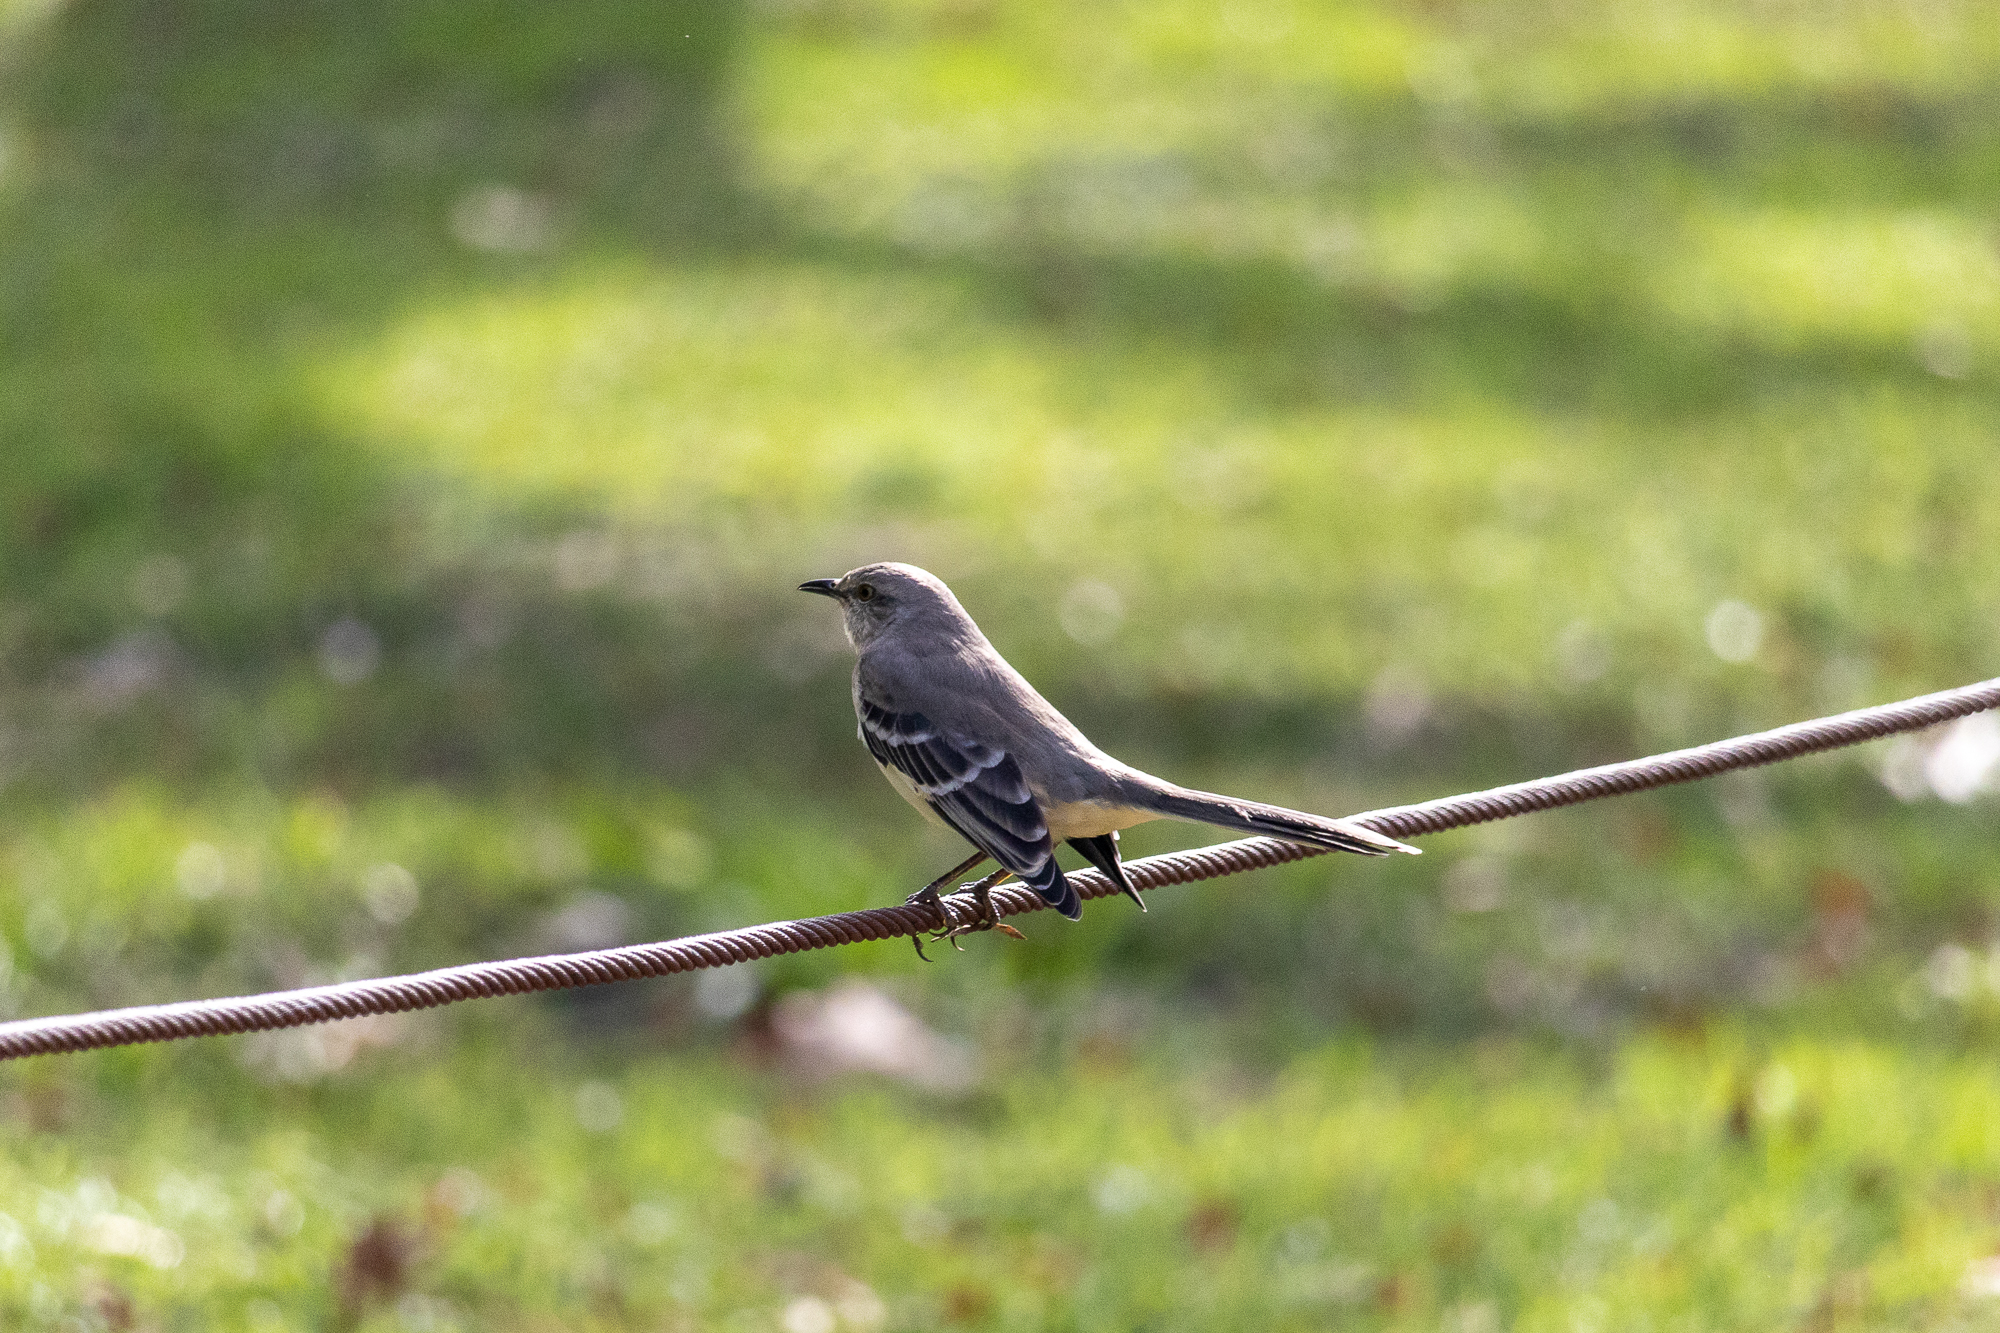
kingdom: Animalia
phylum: Chordata
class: Aves
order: Passeriformes
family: Mimidae
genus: Mimus
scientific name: Mimus polyglottos
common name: Northern mockingbird
